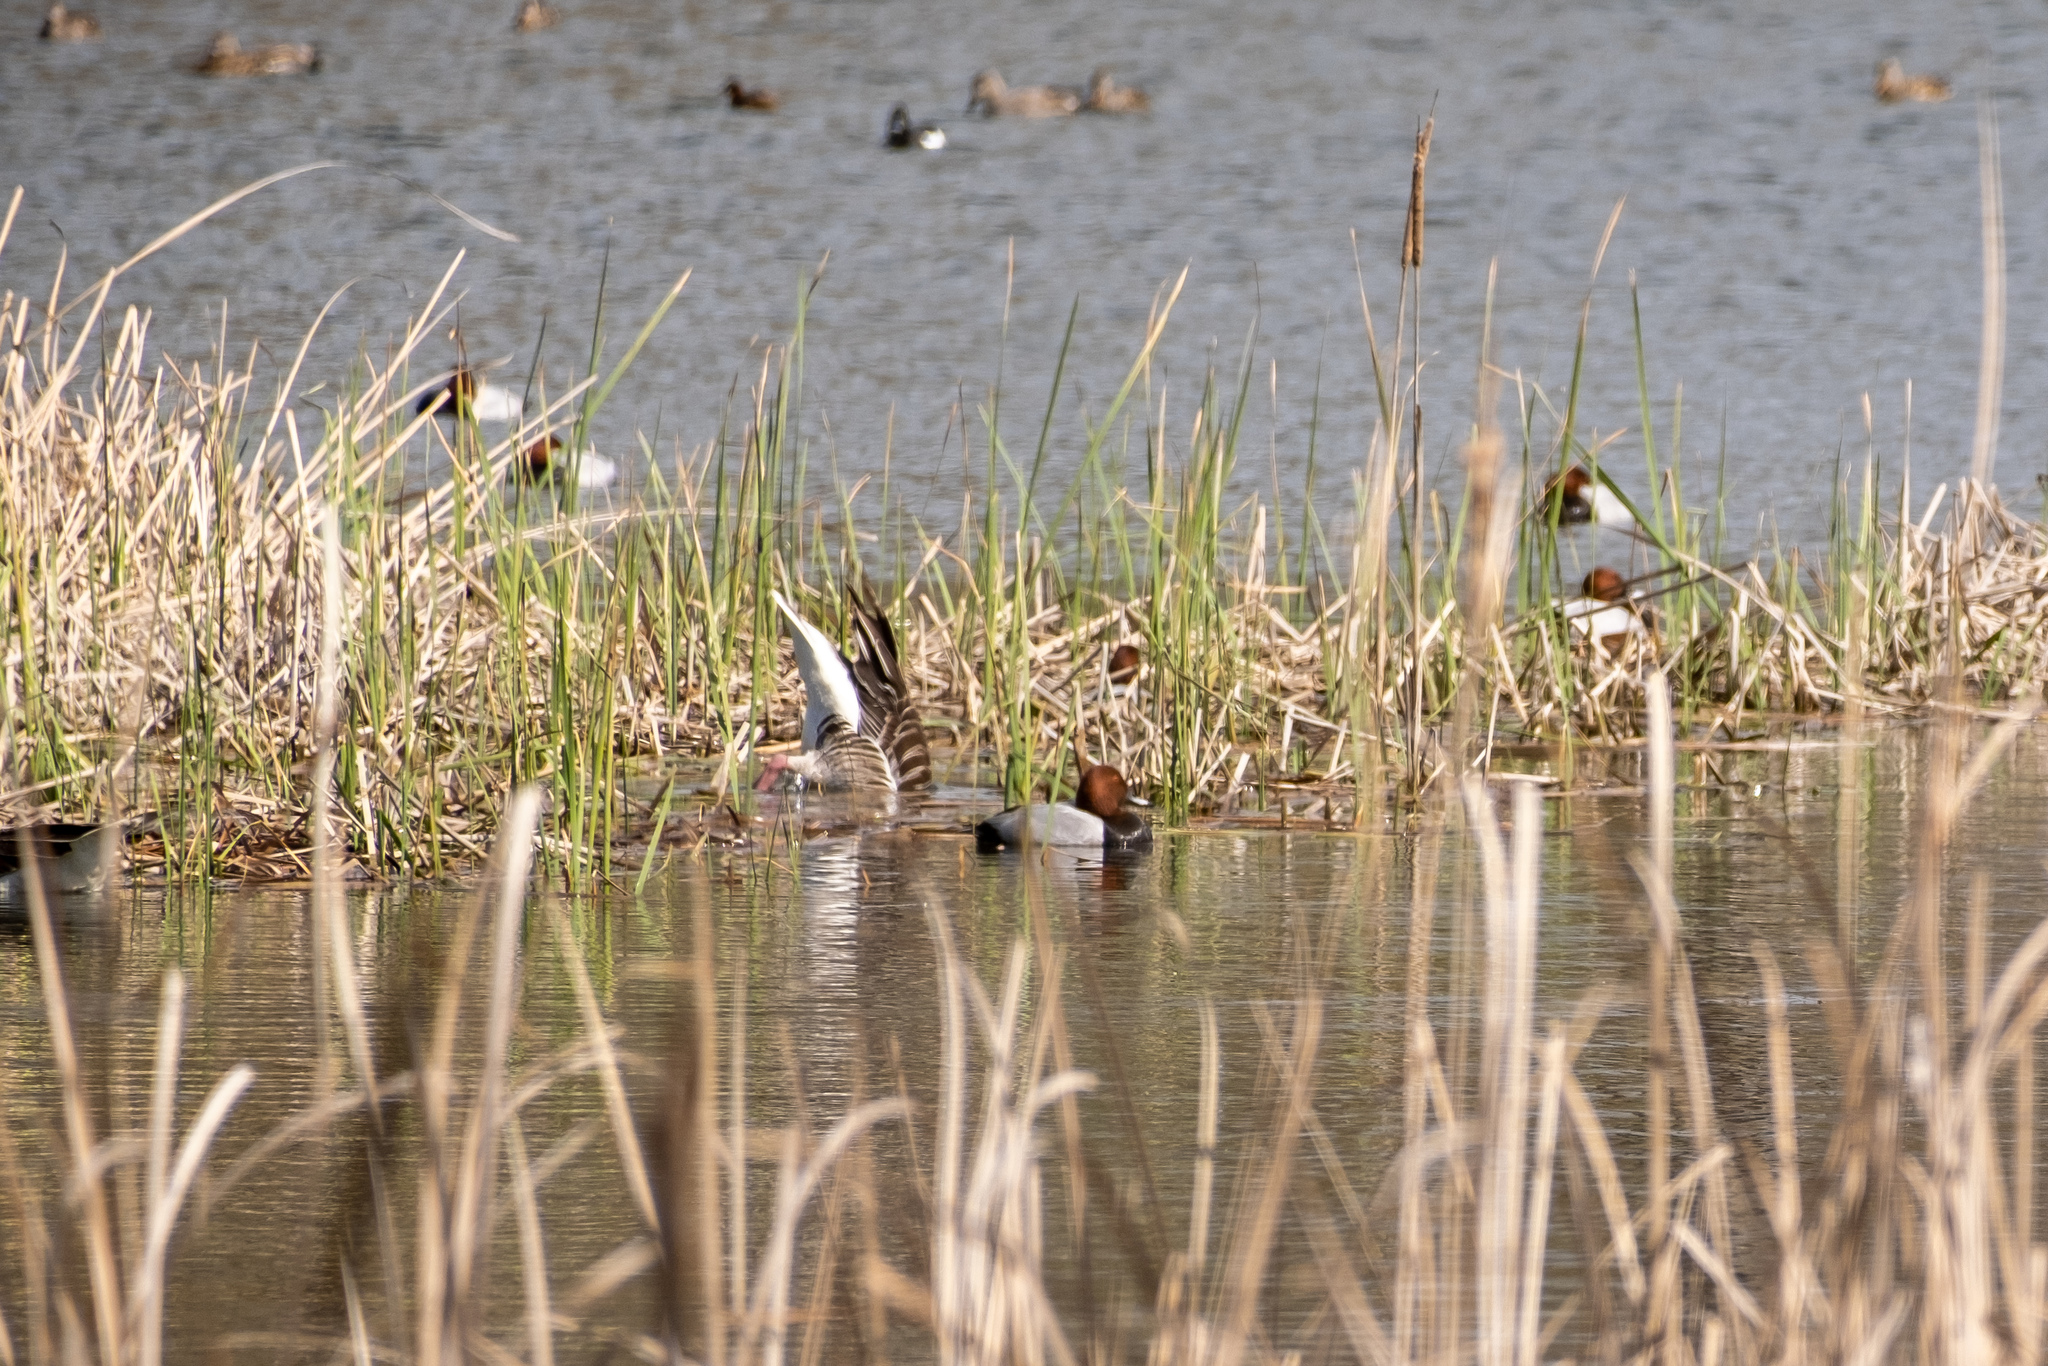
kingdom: Animalia
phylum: Chordata
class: Aves
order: Anseriformes
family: Anatidae
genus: Aythya
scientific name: Aythya ferina
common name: Common pochard
